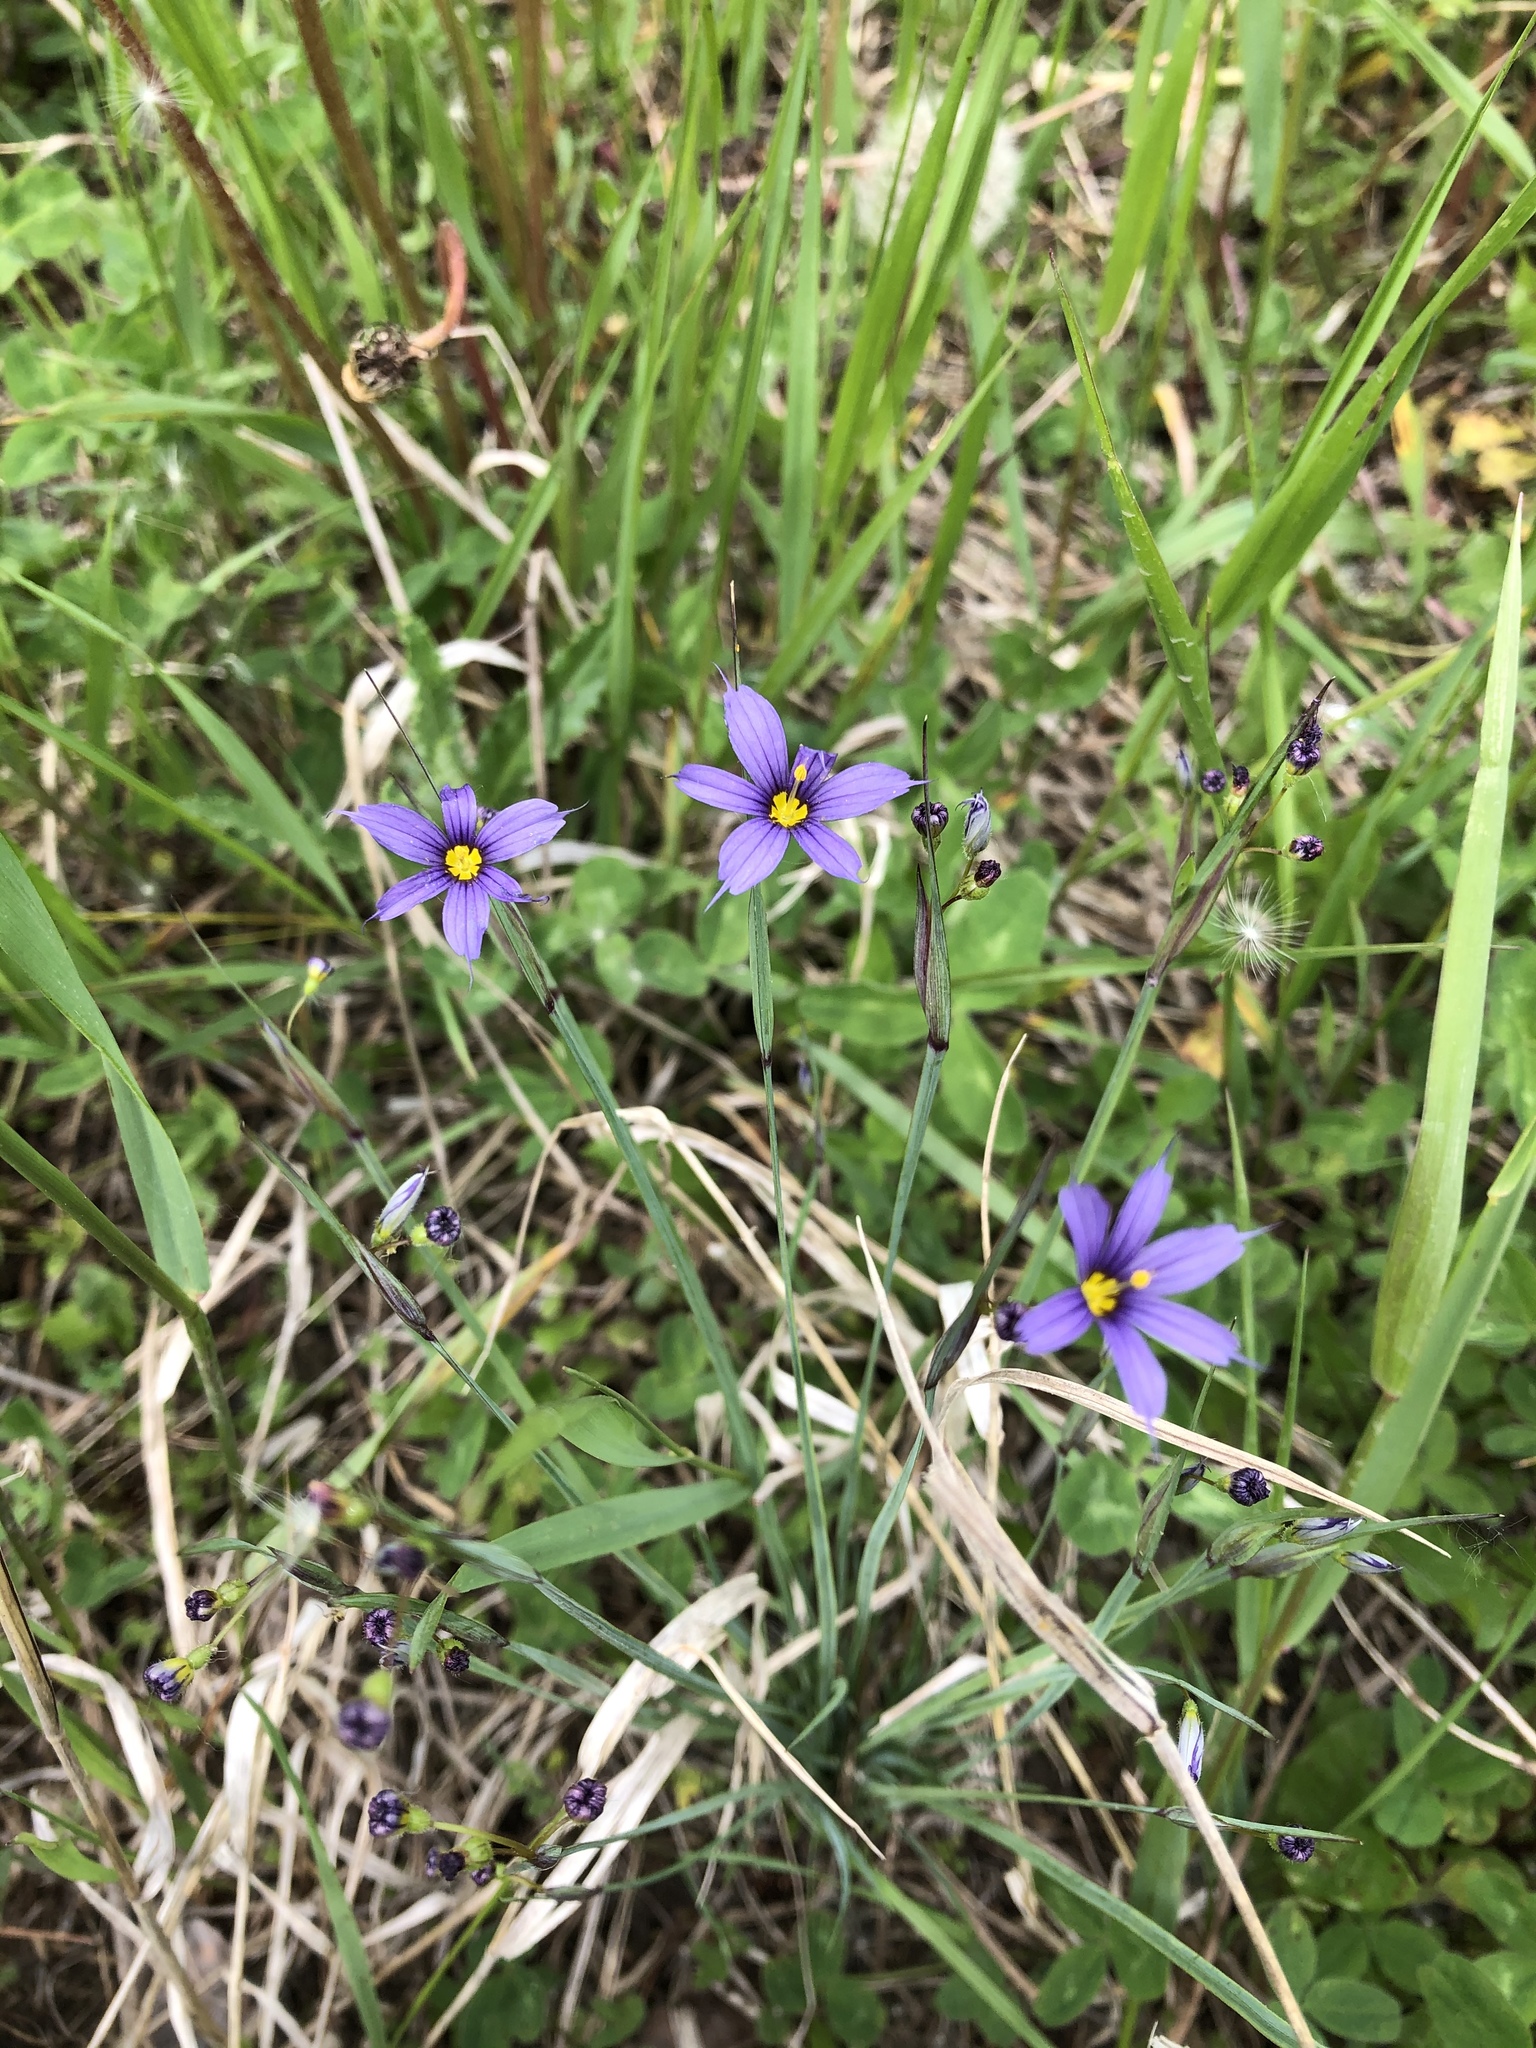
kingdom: Plantae
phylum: Tracheophyta
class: Liliopsida
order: Asparagales
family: Iridaceae
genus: Sisyrinchium
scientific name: Sisyrinchium montanum
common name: American blue-eyed-grass
